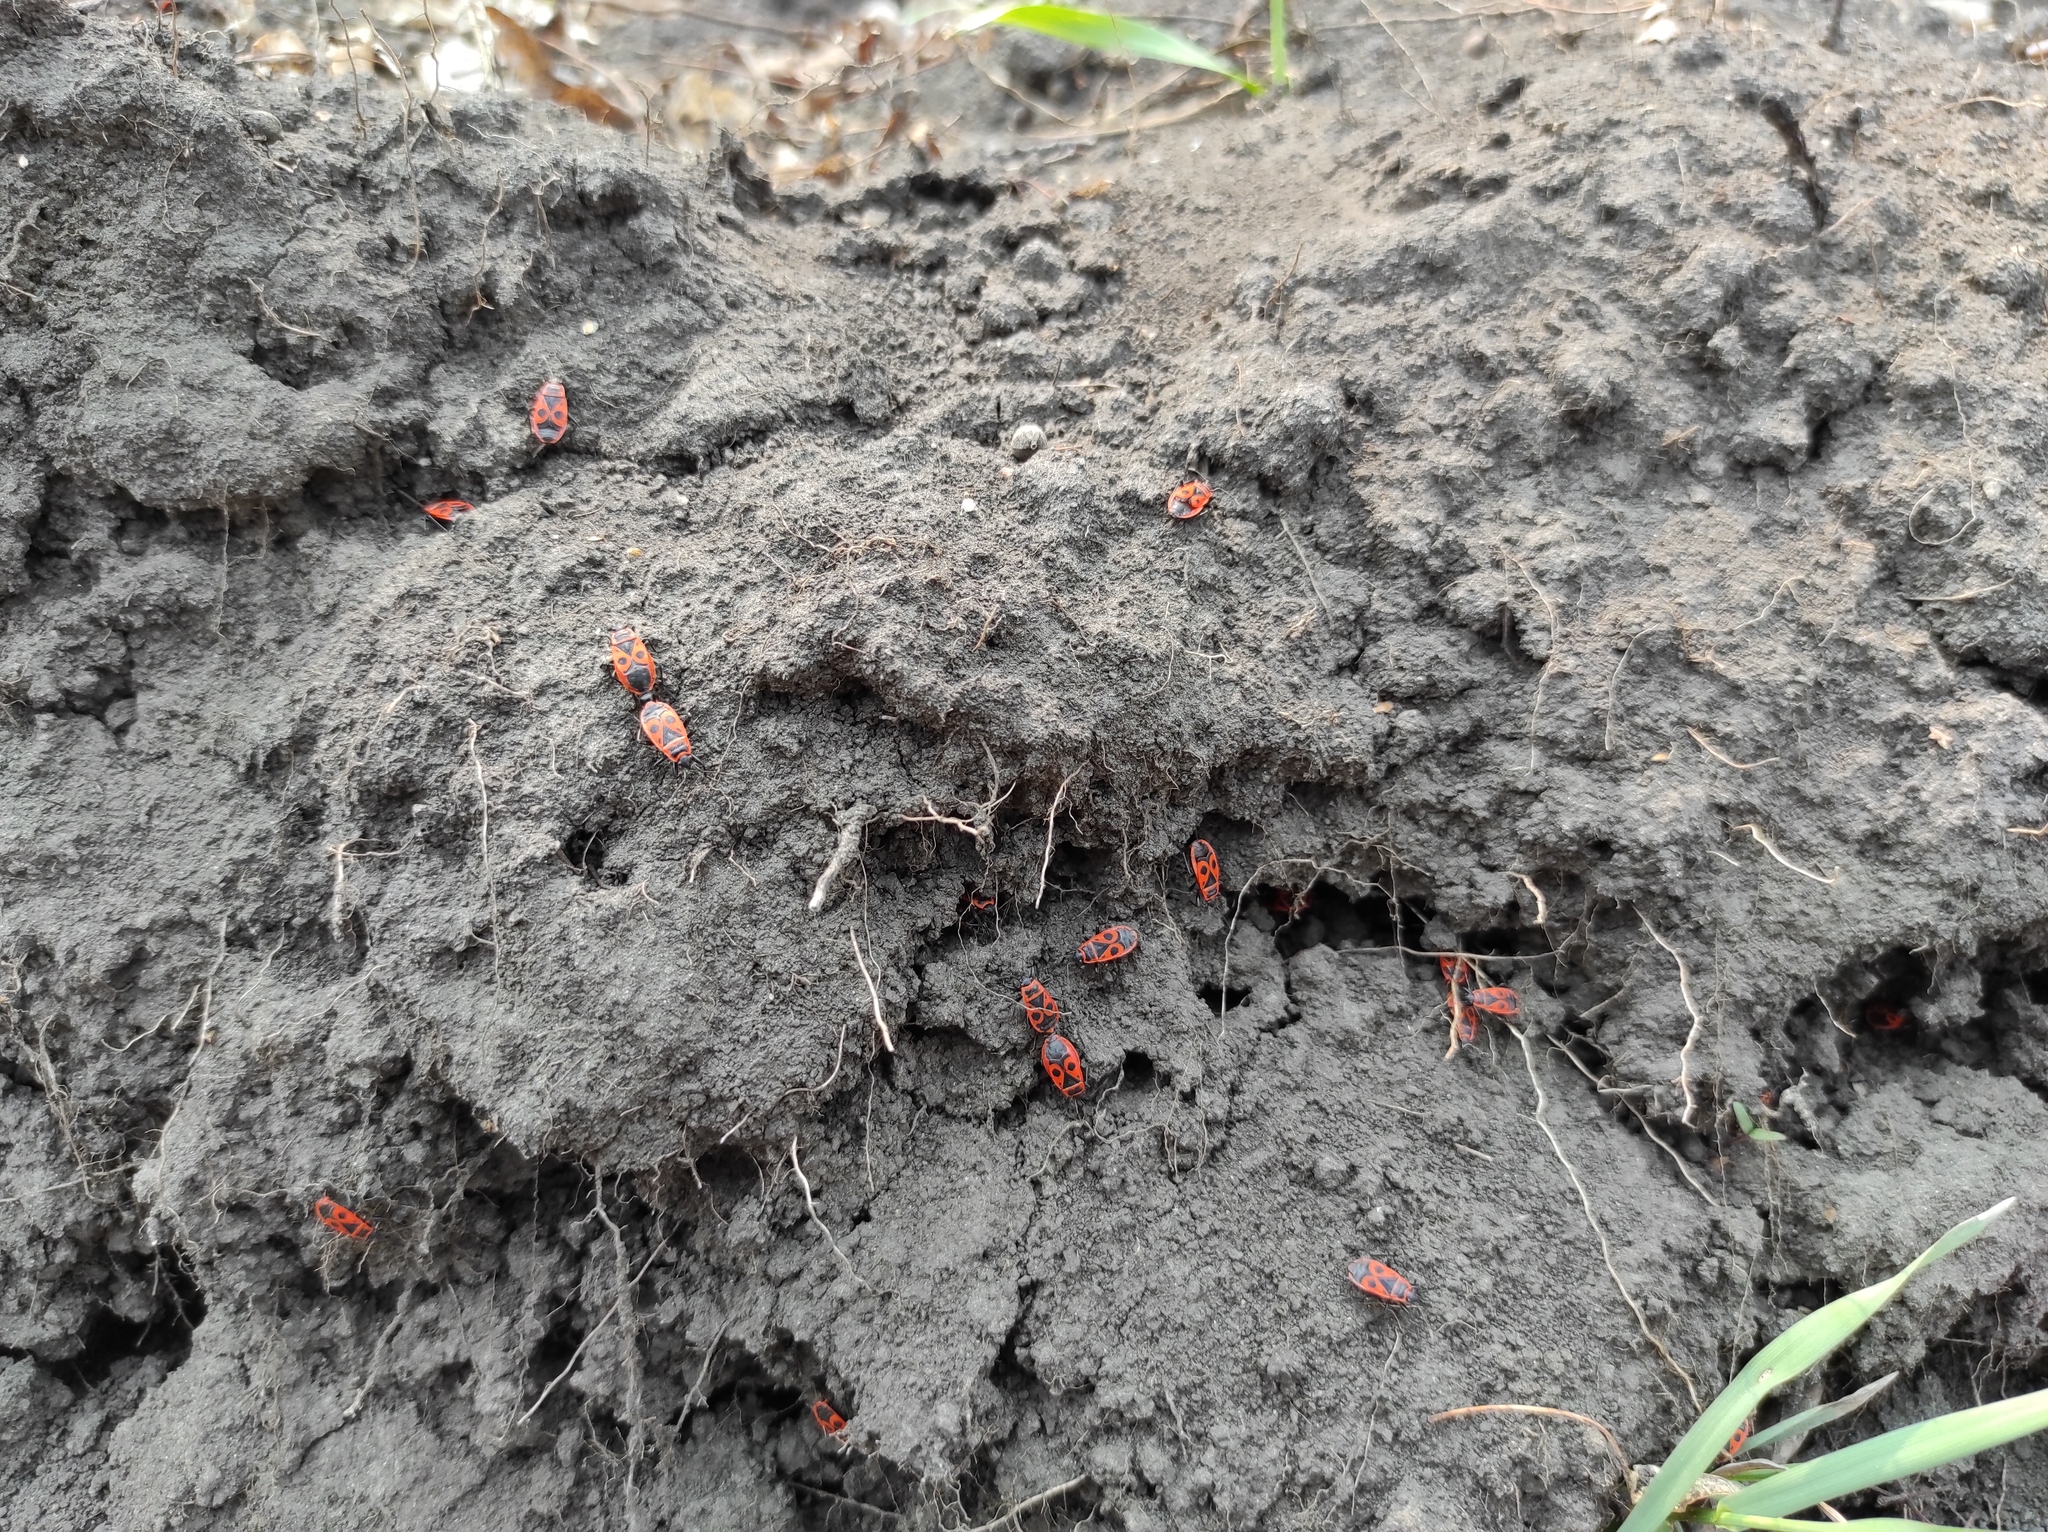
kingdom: Animalia
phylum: Arthropoda
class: Insecta
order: Hemiptera
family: Pyrrhocoridae
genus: Pyrrhocoris
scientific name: Pyrrhocoris apterus
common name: Firebug
